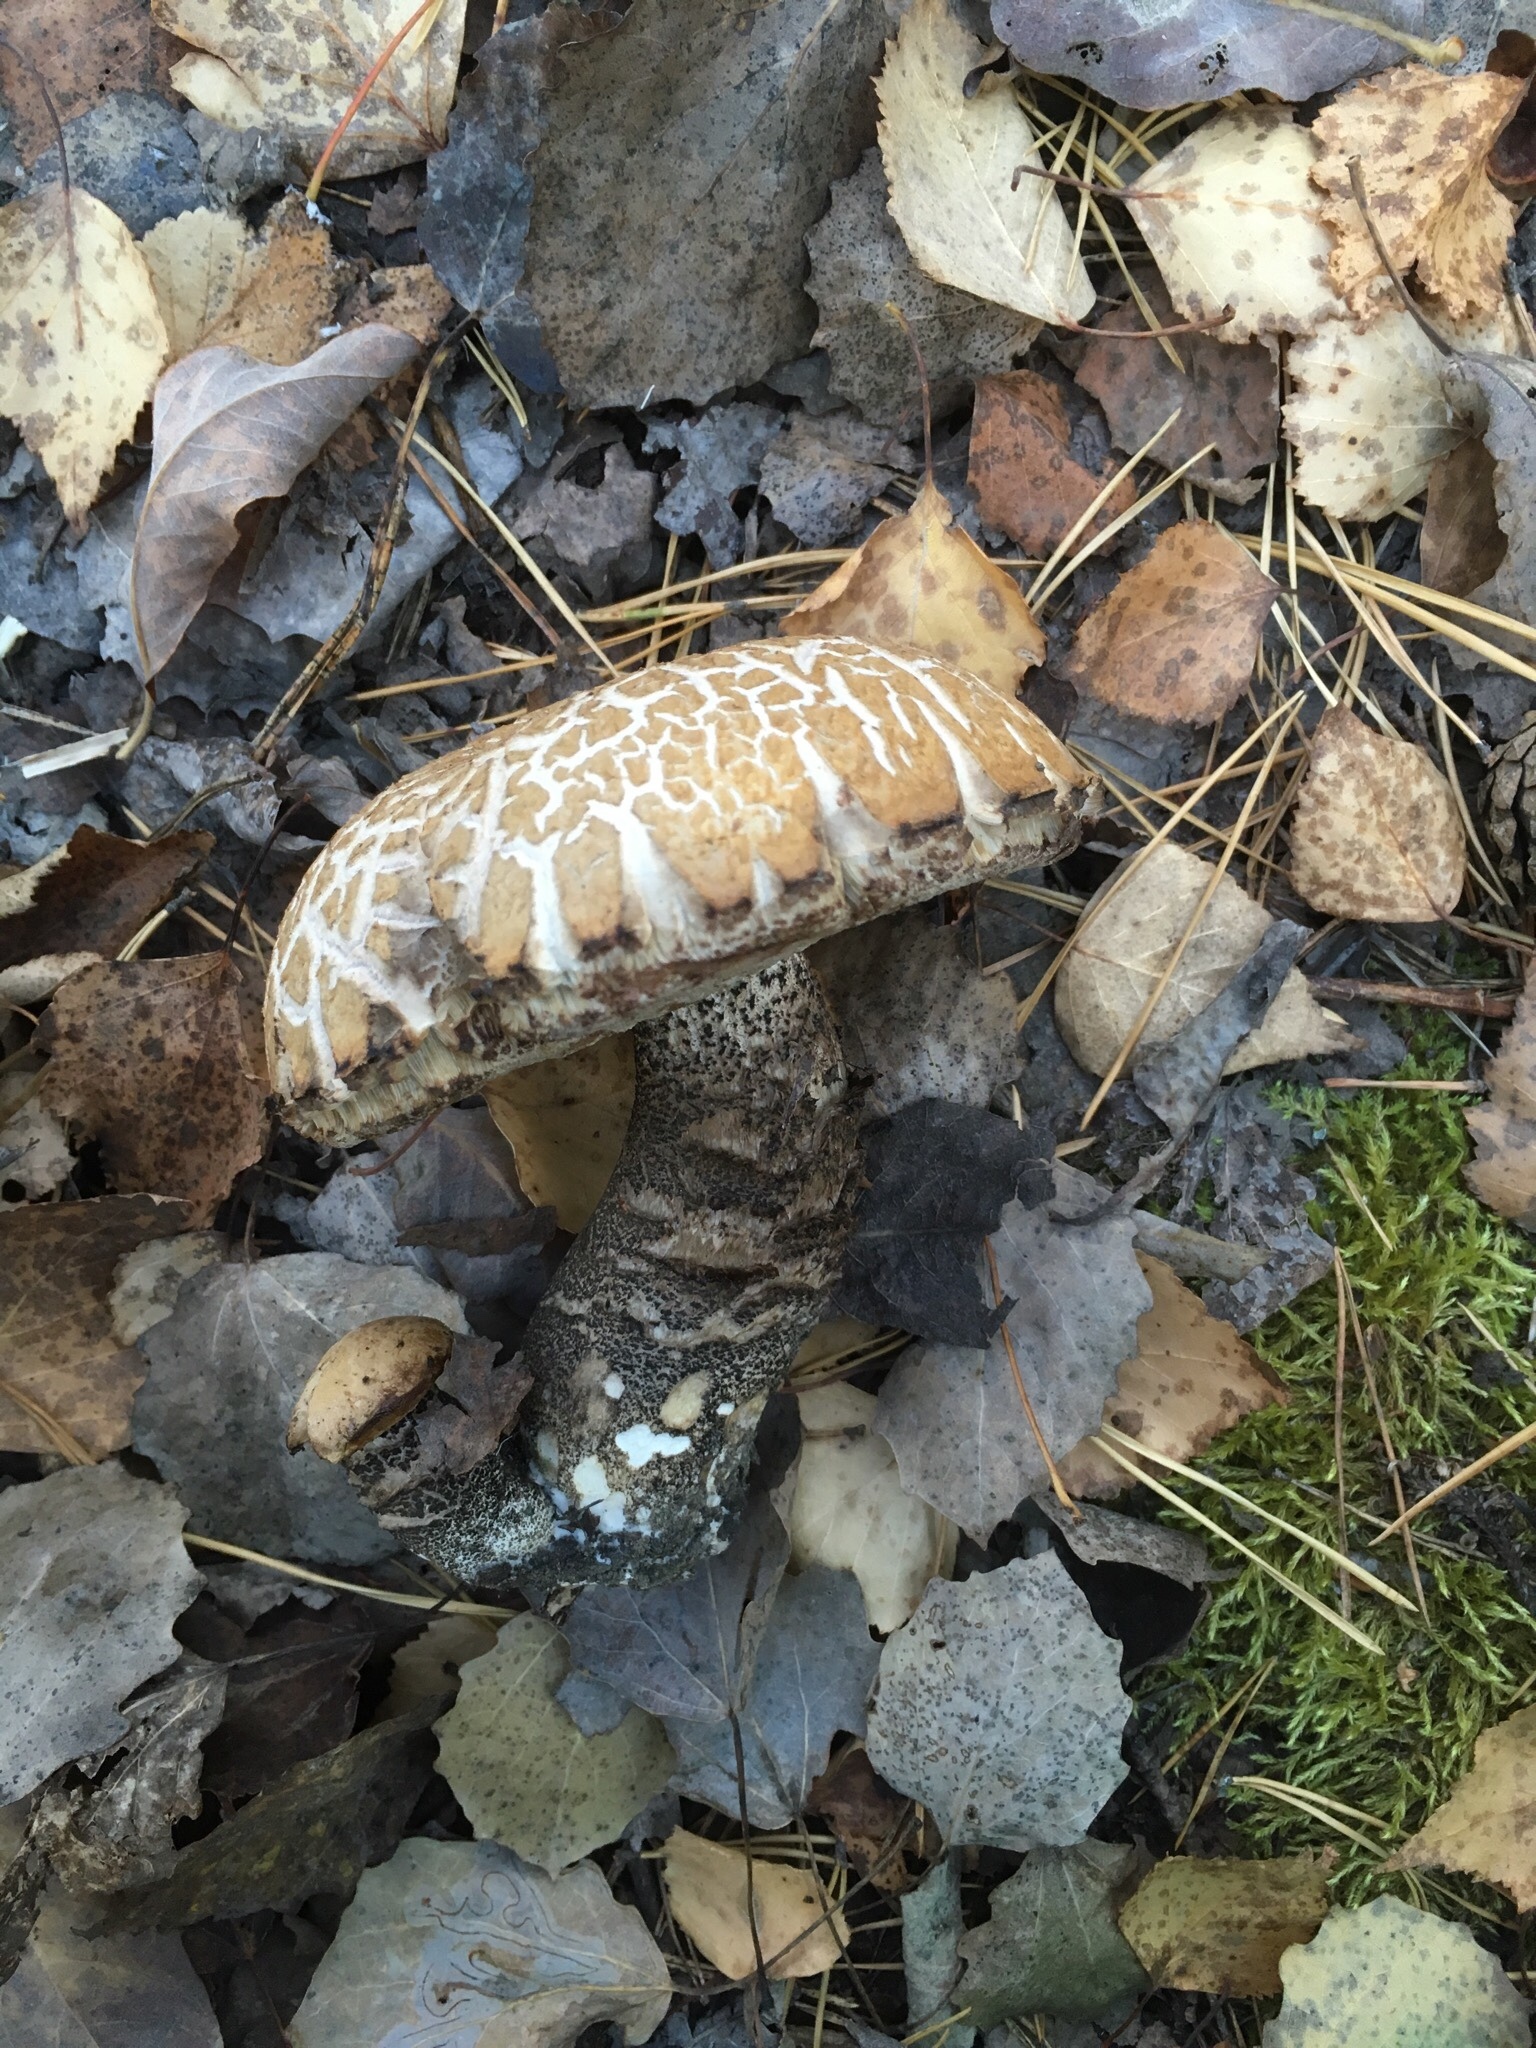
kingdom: Fungi
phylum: Basidiomycota
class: Agaricomycetes
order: Boletales
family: Boletaceae
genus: Leccinum
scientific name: Leccinum versipelle
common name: Orange birch bolete
